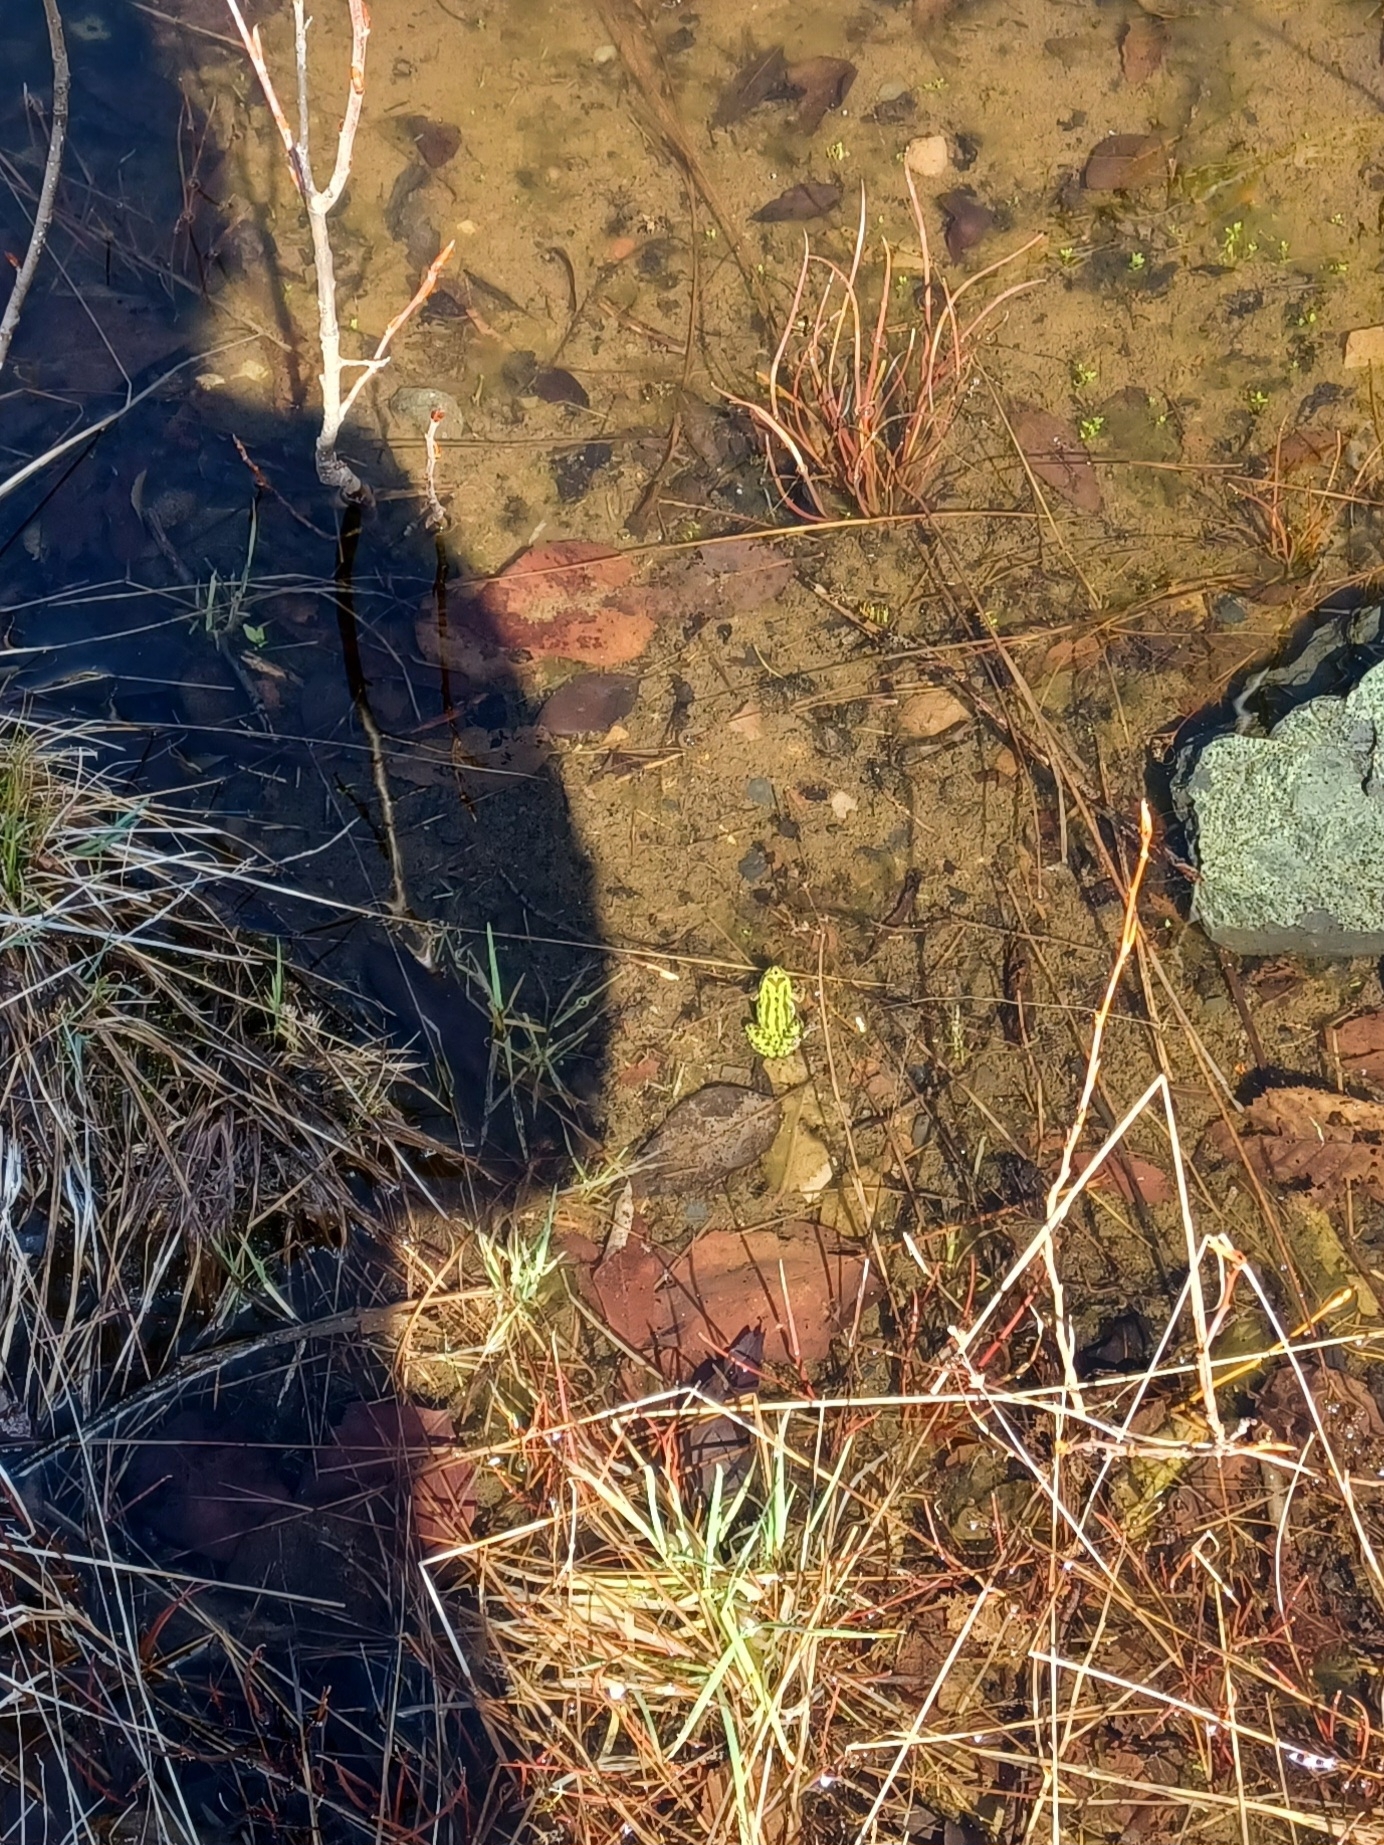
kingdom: Animalia
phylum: Chordata
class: Amphibia
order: Anura
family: Hylidae
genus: Pseudacris
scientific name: Pseudacris regilla
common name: Pacific chorus frog
